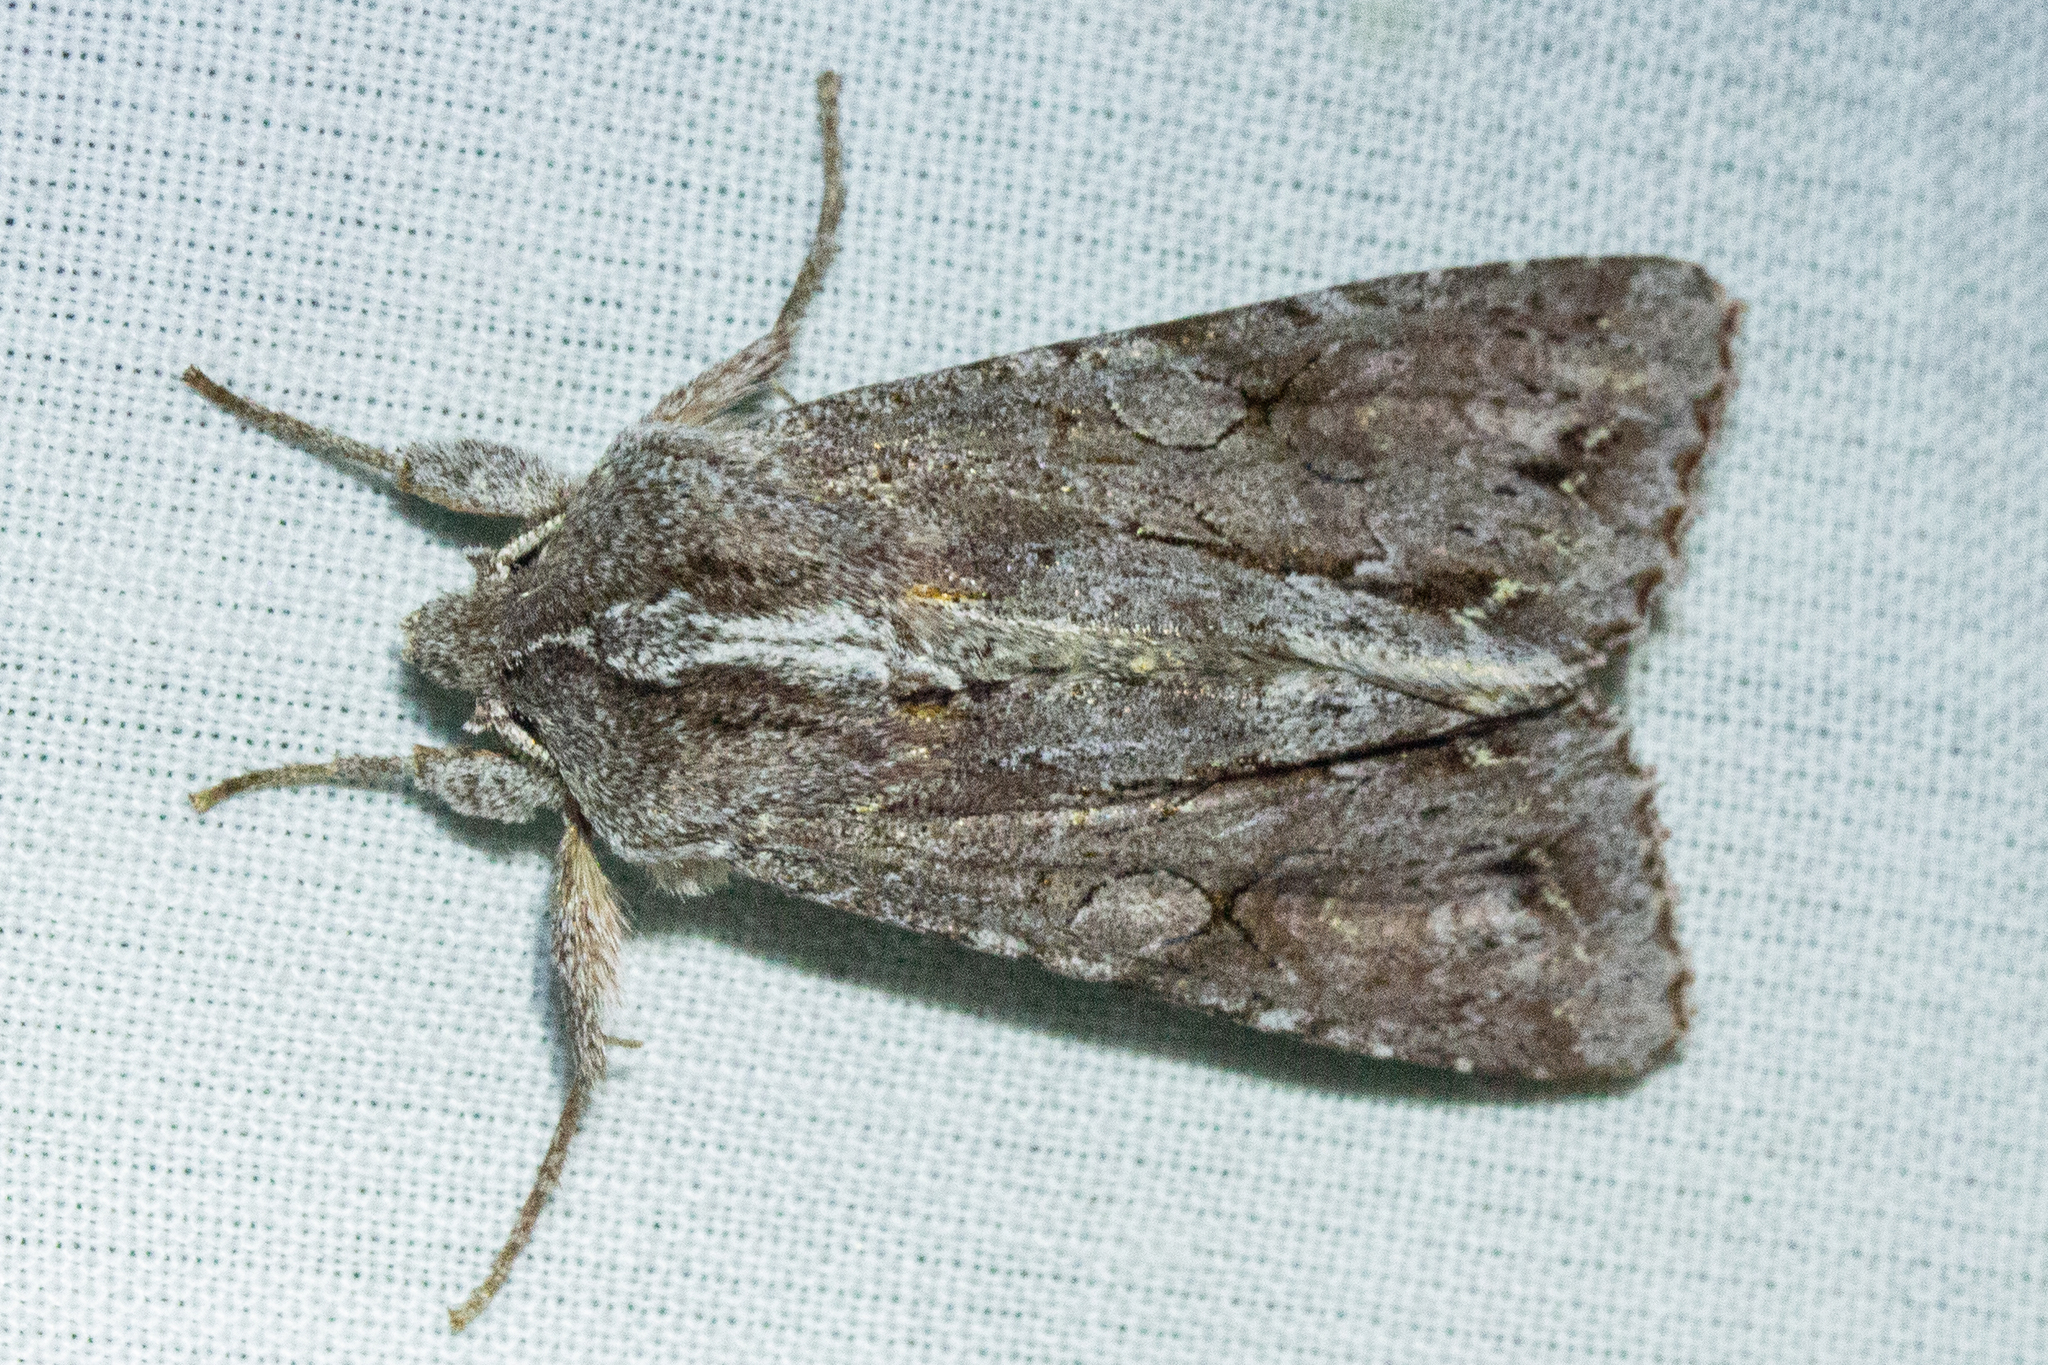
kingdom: Animalia
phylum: Arthropoda
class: Insecta
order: Lepidoptera
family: Noctuidae
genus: Ichneutica
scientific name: Ichneutica
